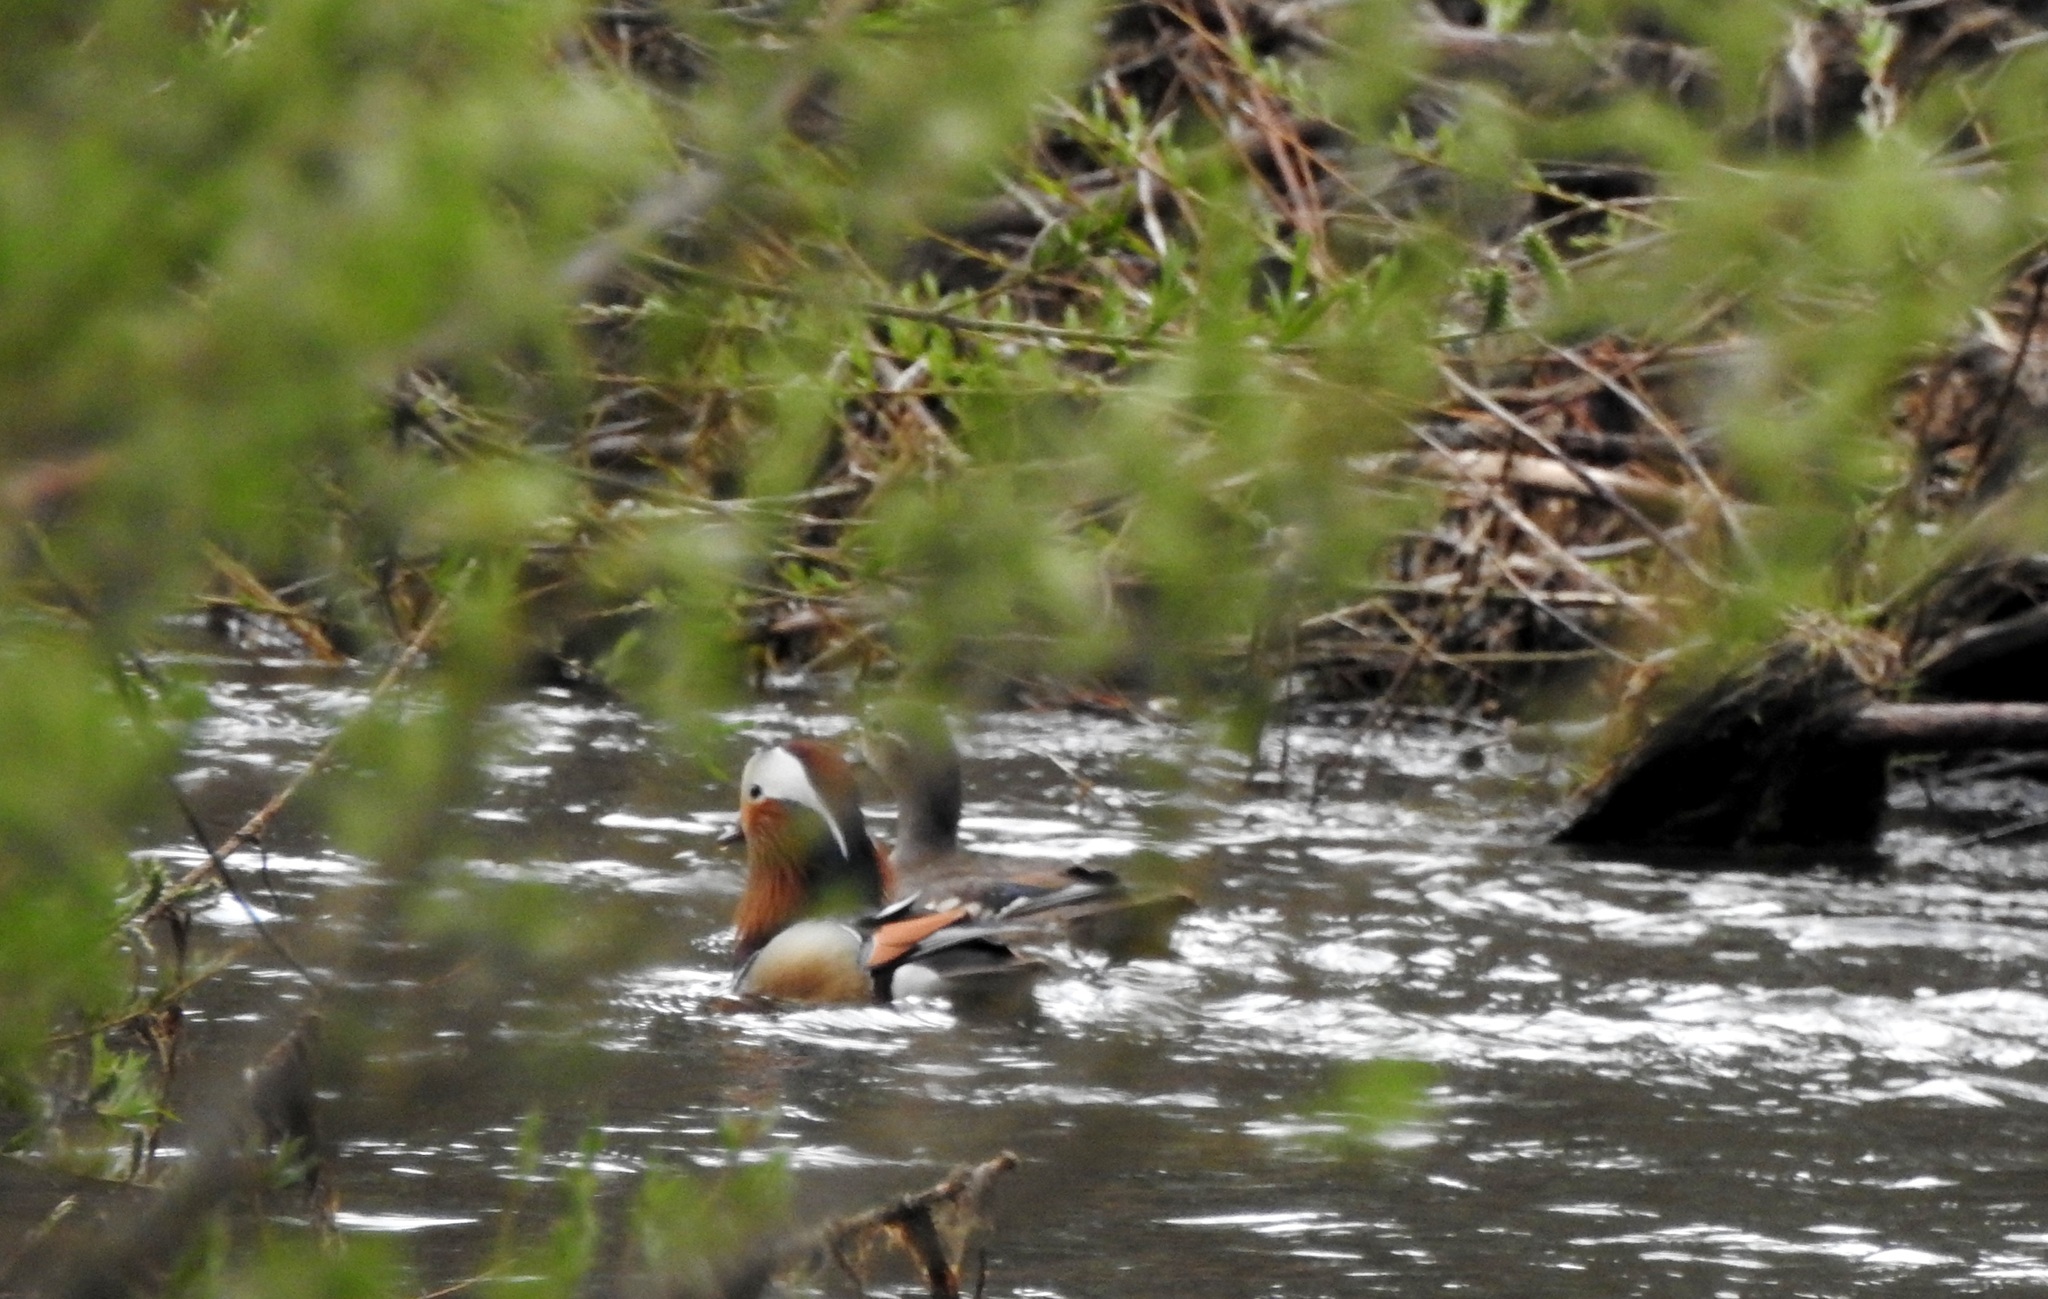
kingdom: Animalia
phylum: Chordata
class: Aves
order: Anseriformes
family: Anatidae
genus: Aix
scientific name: Aix galericulata
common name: Mandarin duck
